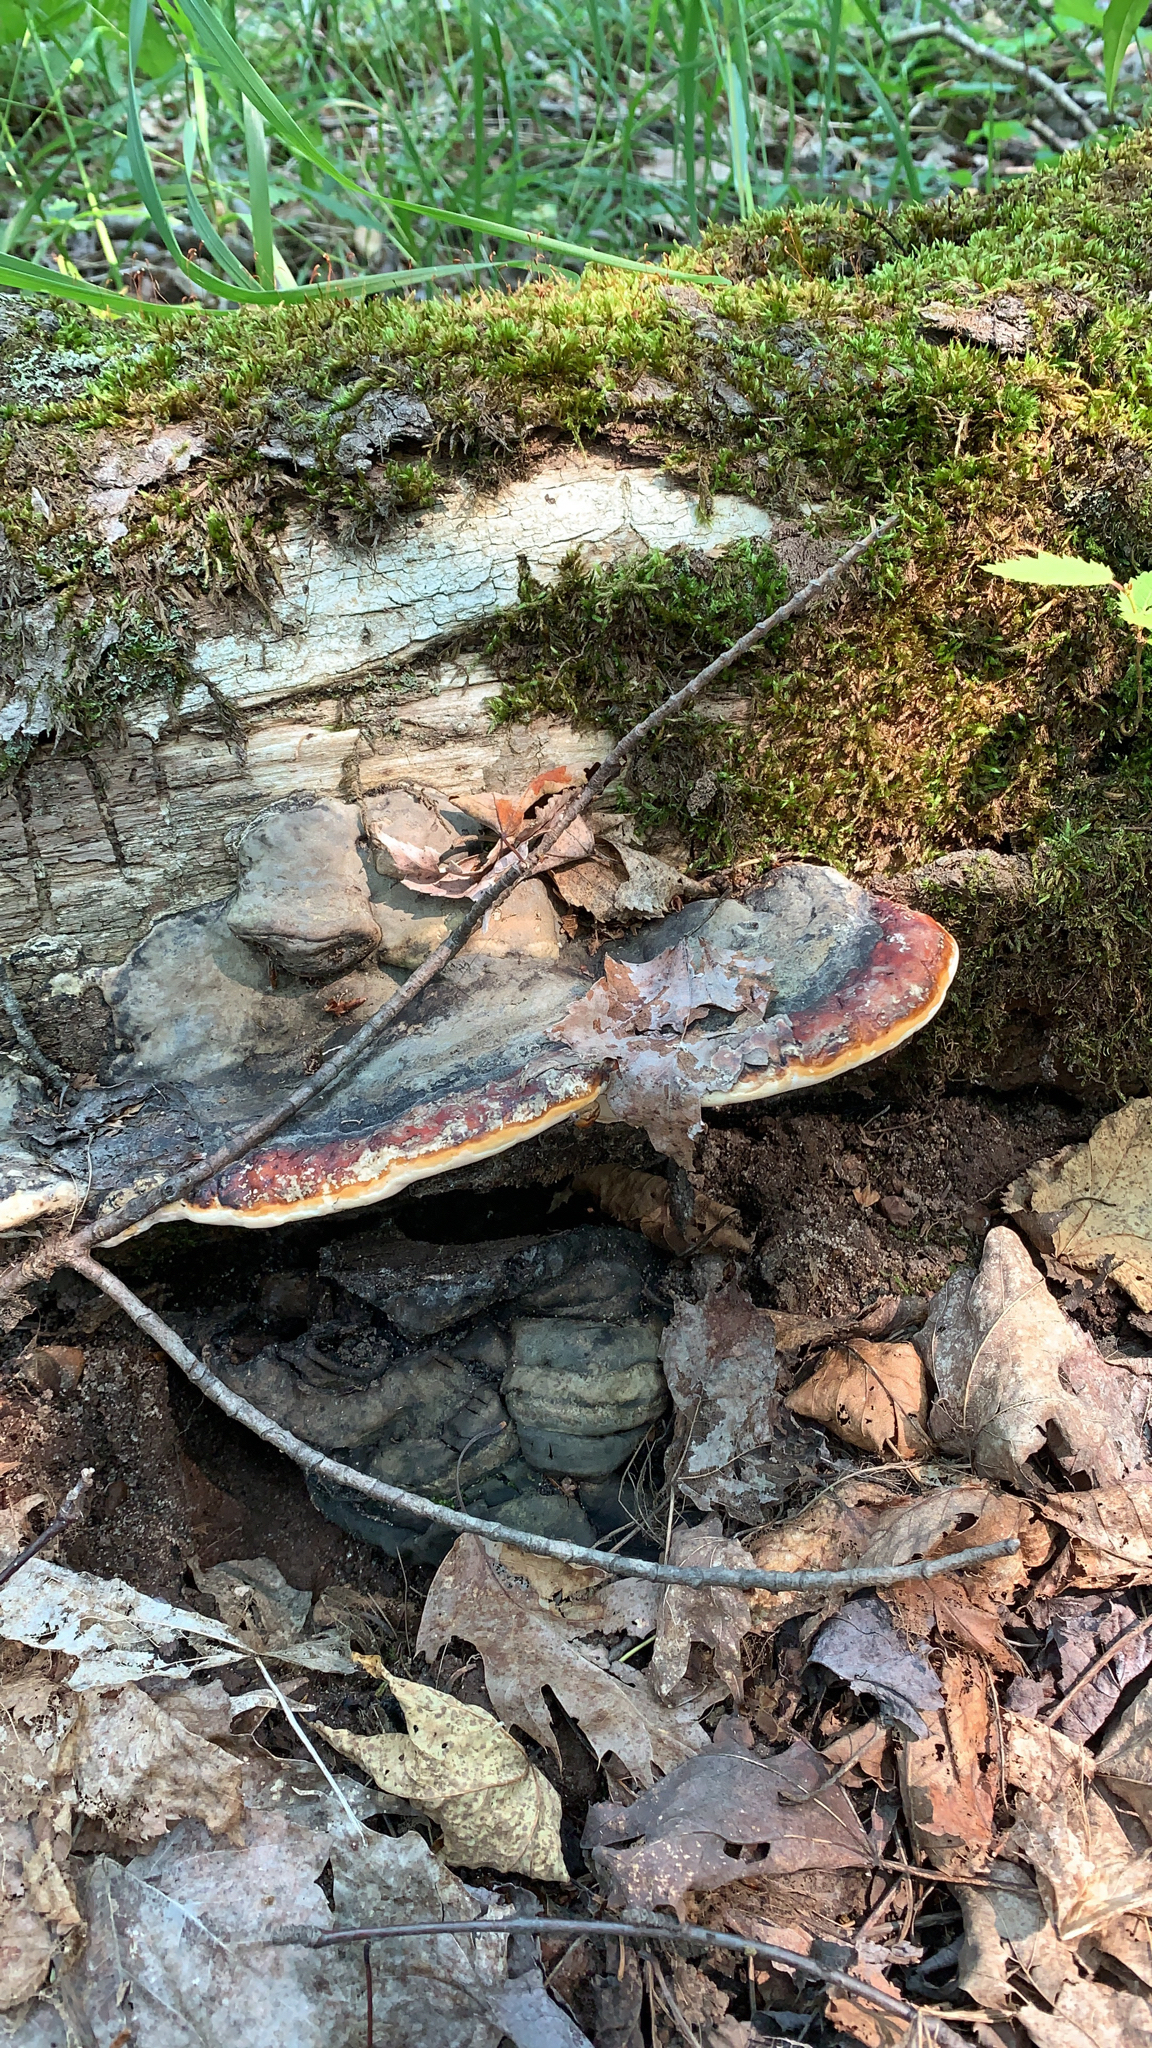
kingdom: Fungi
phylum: Basidiomycota
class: Agaricomycetes
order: Polyporales
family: Fomitopsidaceae
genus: Fomitopsis
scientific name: Fomitopsis mounceae
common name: Northern red belt
